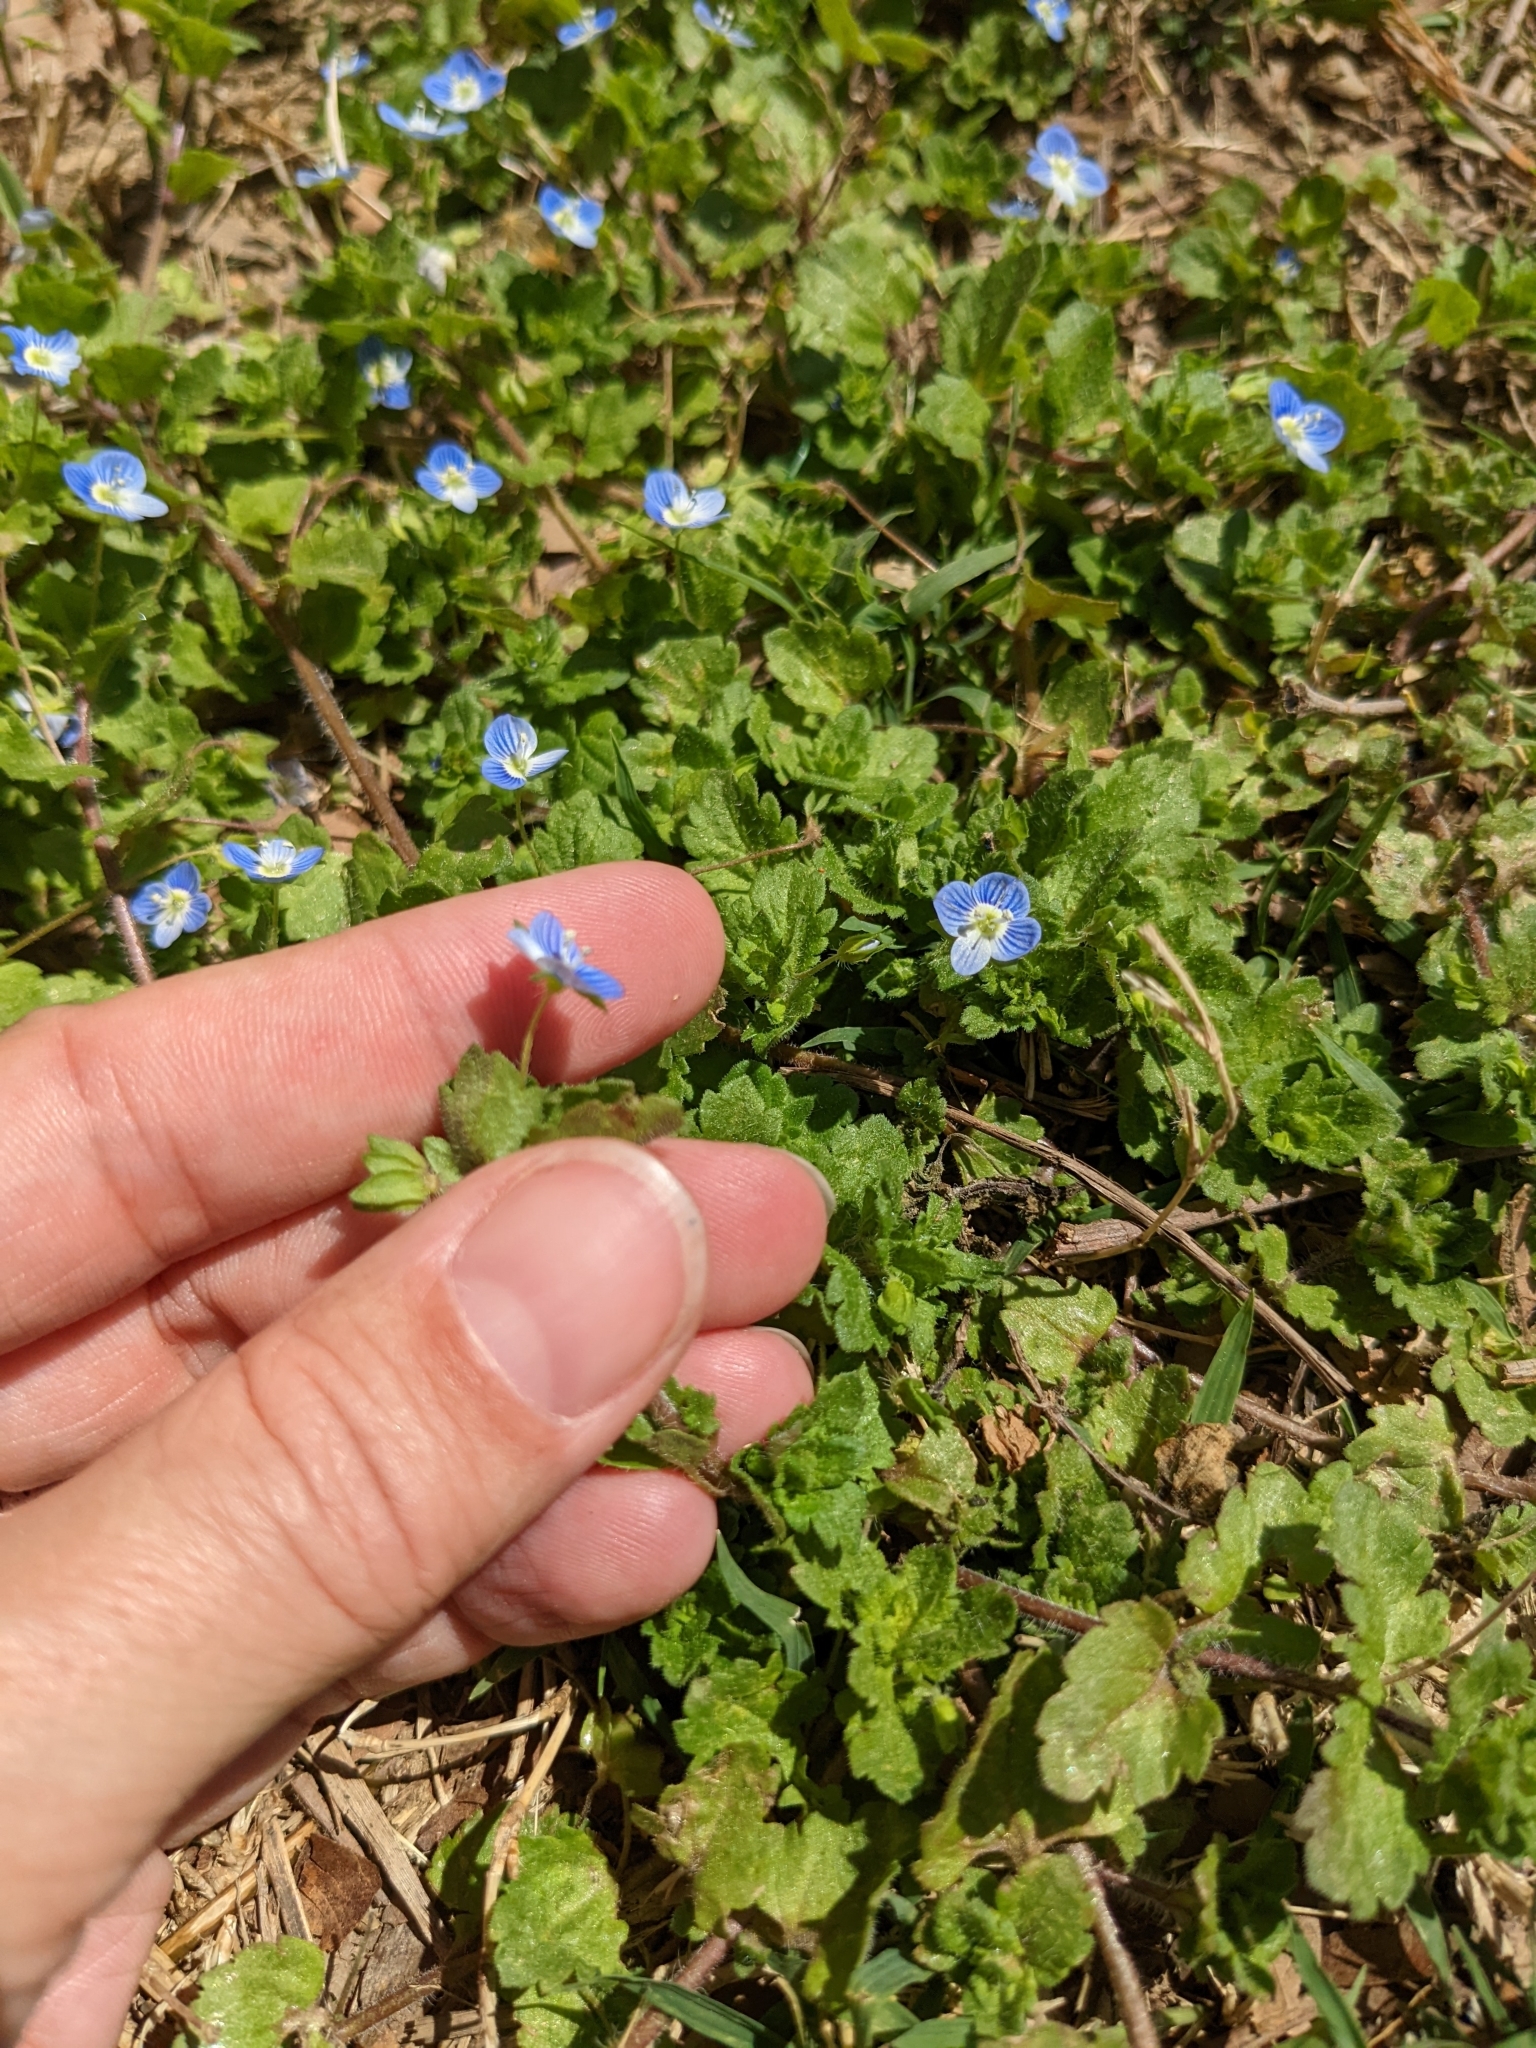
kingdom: Plantae
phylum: Tracheophyta
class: Magnoliopsida
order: Lamiales
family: Plantaginaceae
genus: Veronica
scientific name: Veronica persica
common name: Common field-speedwell
